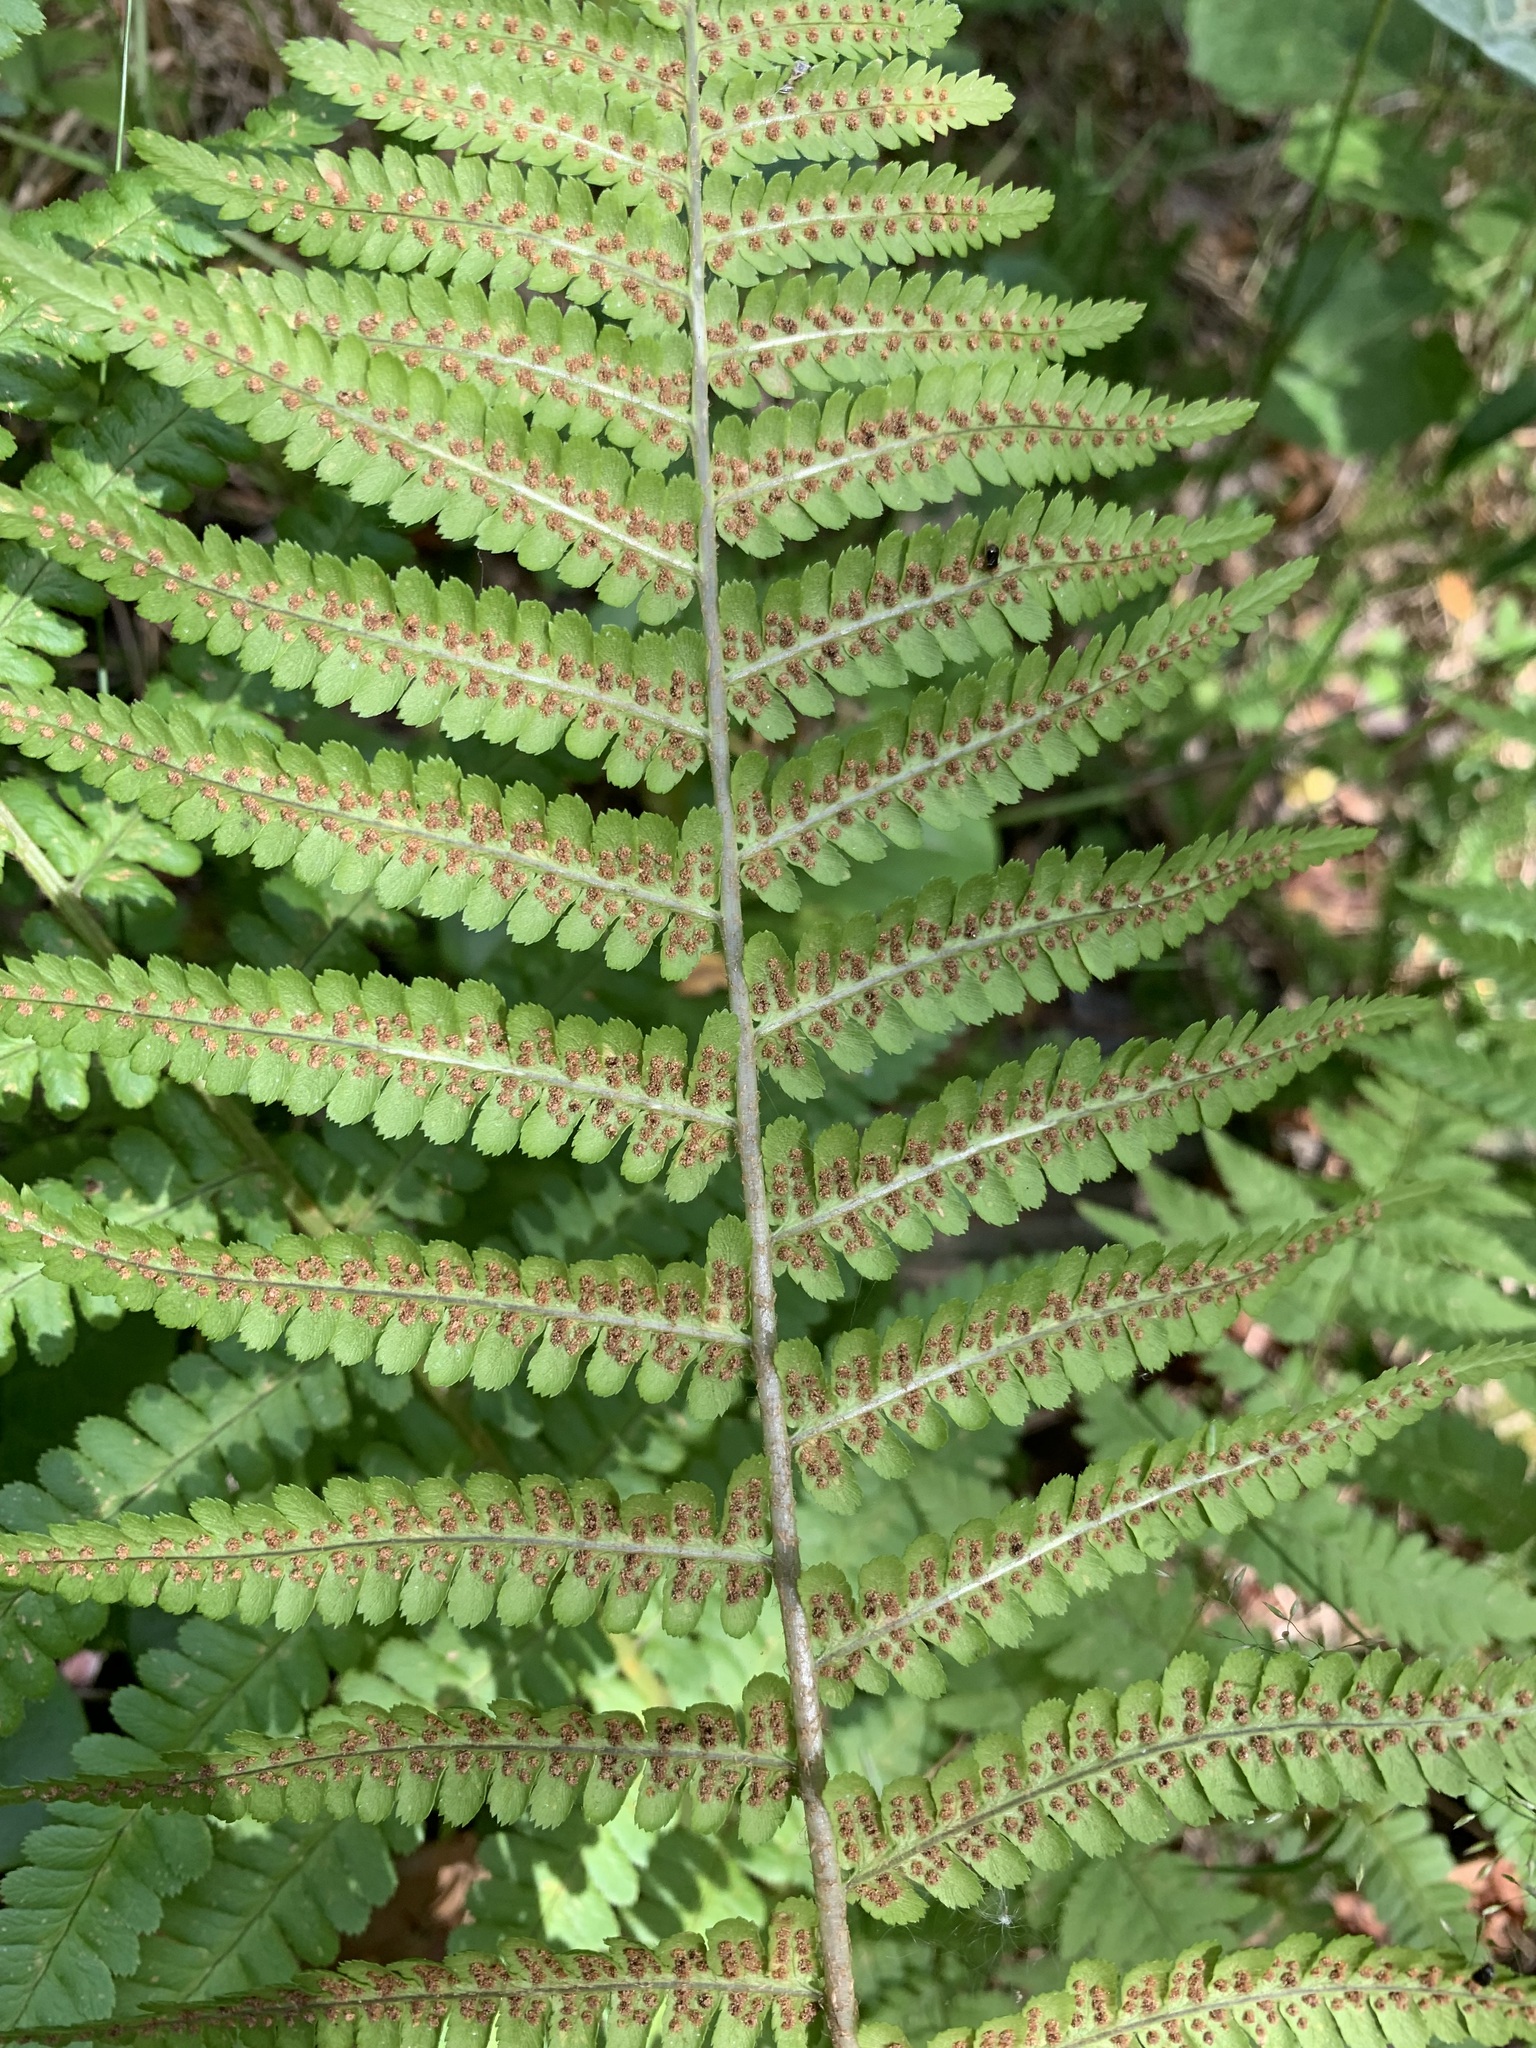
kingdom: Plantae
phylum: Tracheophyta
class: Polypodiopsida
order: Polypodiales
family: Dryopteridaceae
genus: Dryopteris
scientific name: Dryopteris filix-mas
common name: Male fern
